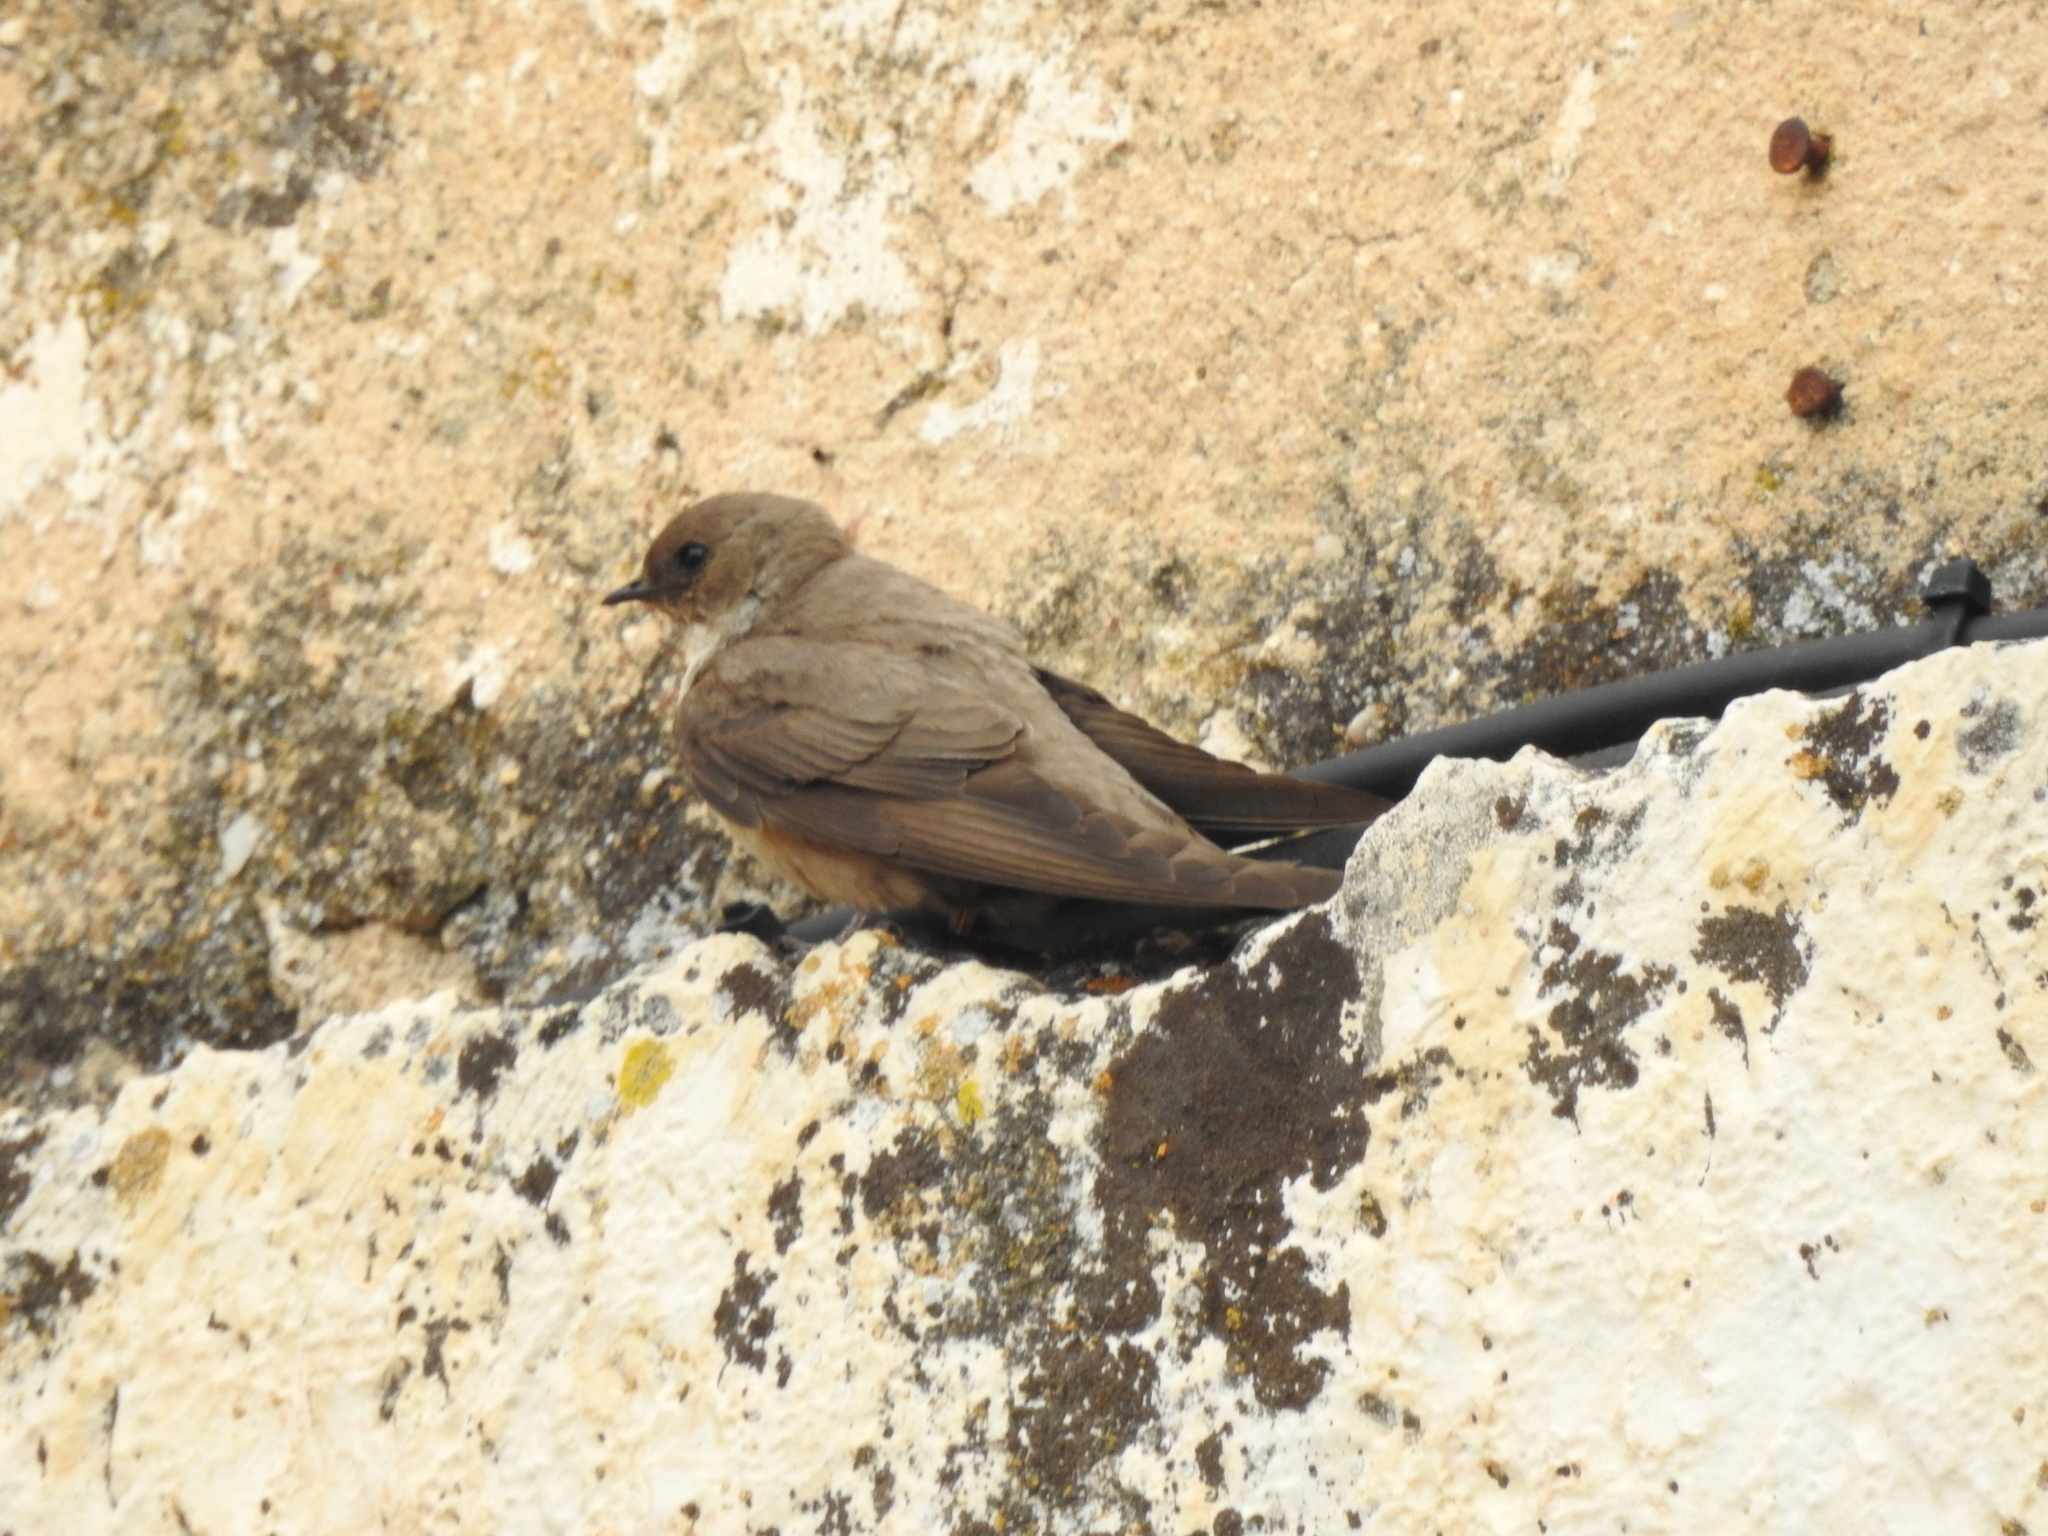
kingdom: Animalia
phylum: Chordata
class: Aves
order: Passeriformes
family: Hirundinidae
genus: Ptyonoprogne
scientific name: Ptyonoprogne rupestris
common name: Eurasian crag martin
